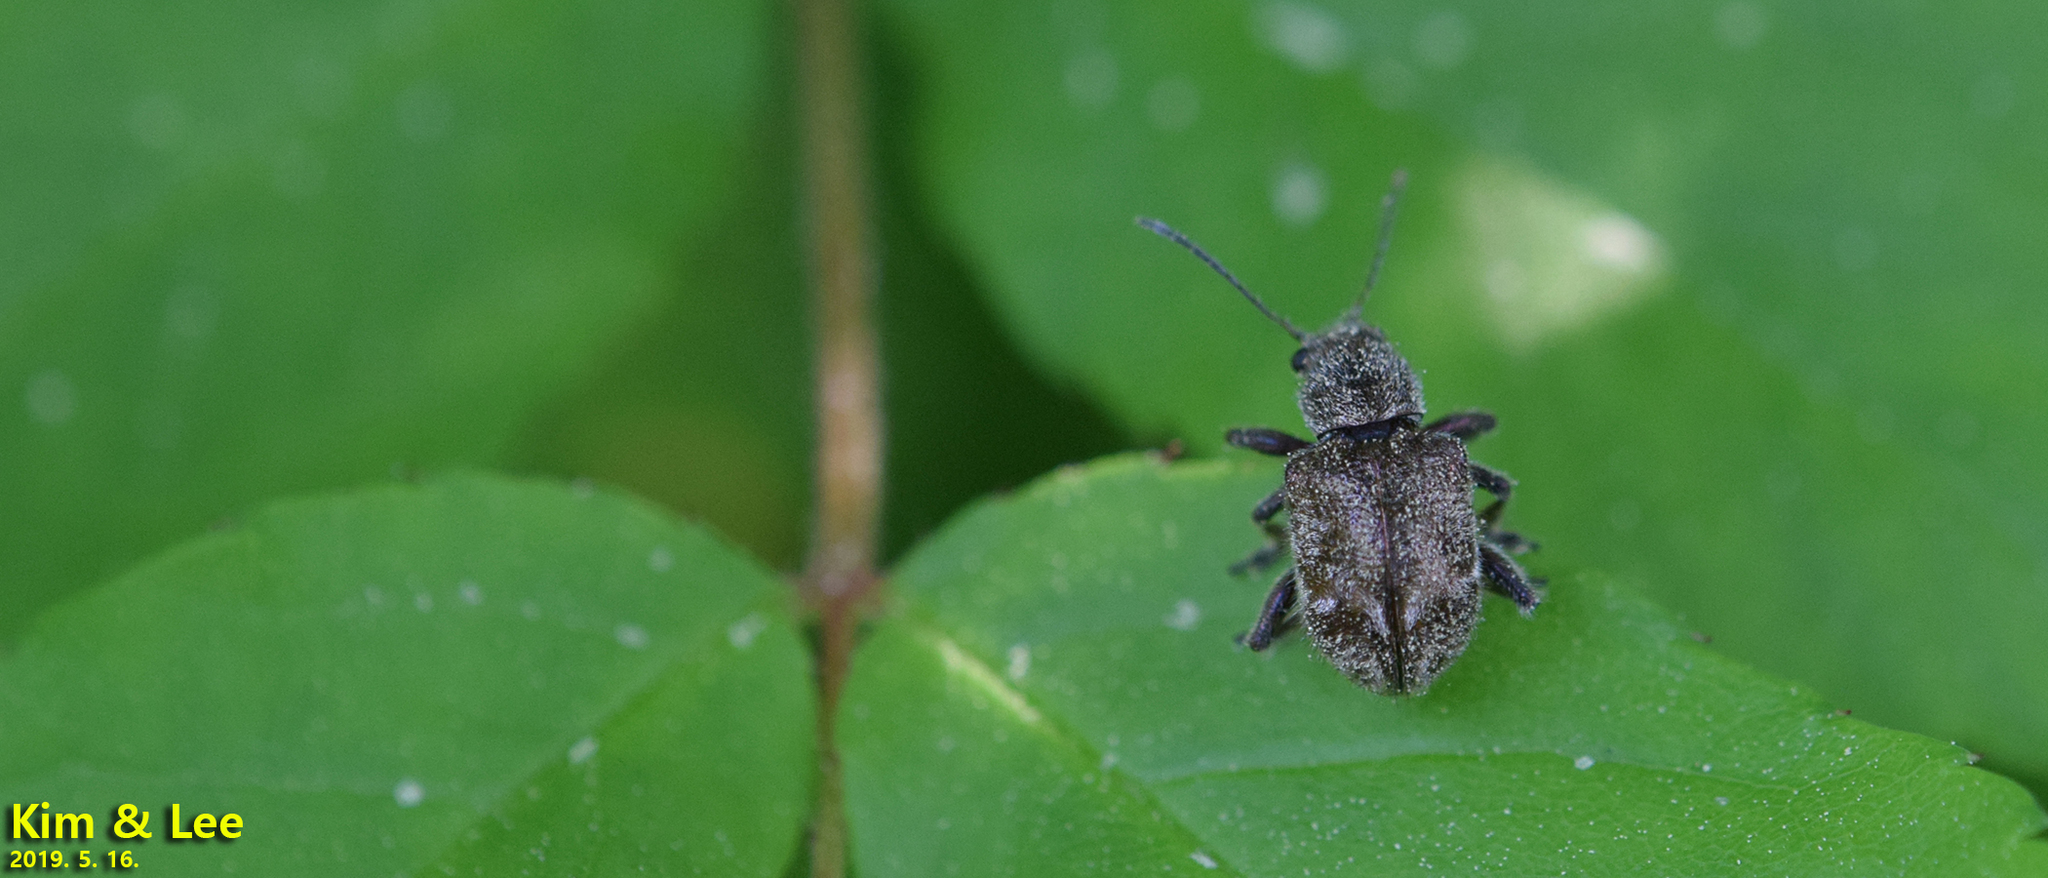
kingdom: Animalia
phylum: Arthropoda
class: Insecta
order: Coleoptera
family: Chrysomelidae
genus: Trichochrysea
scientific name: Trichochrysea
